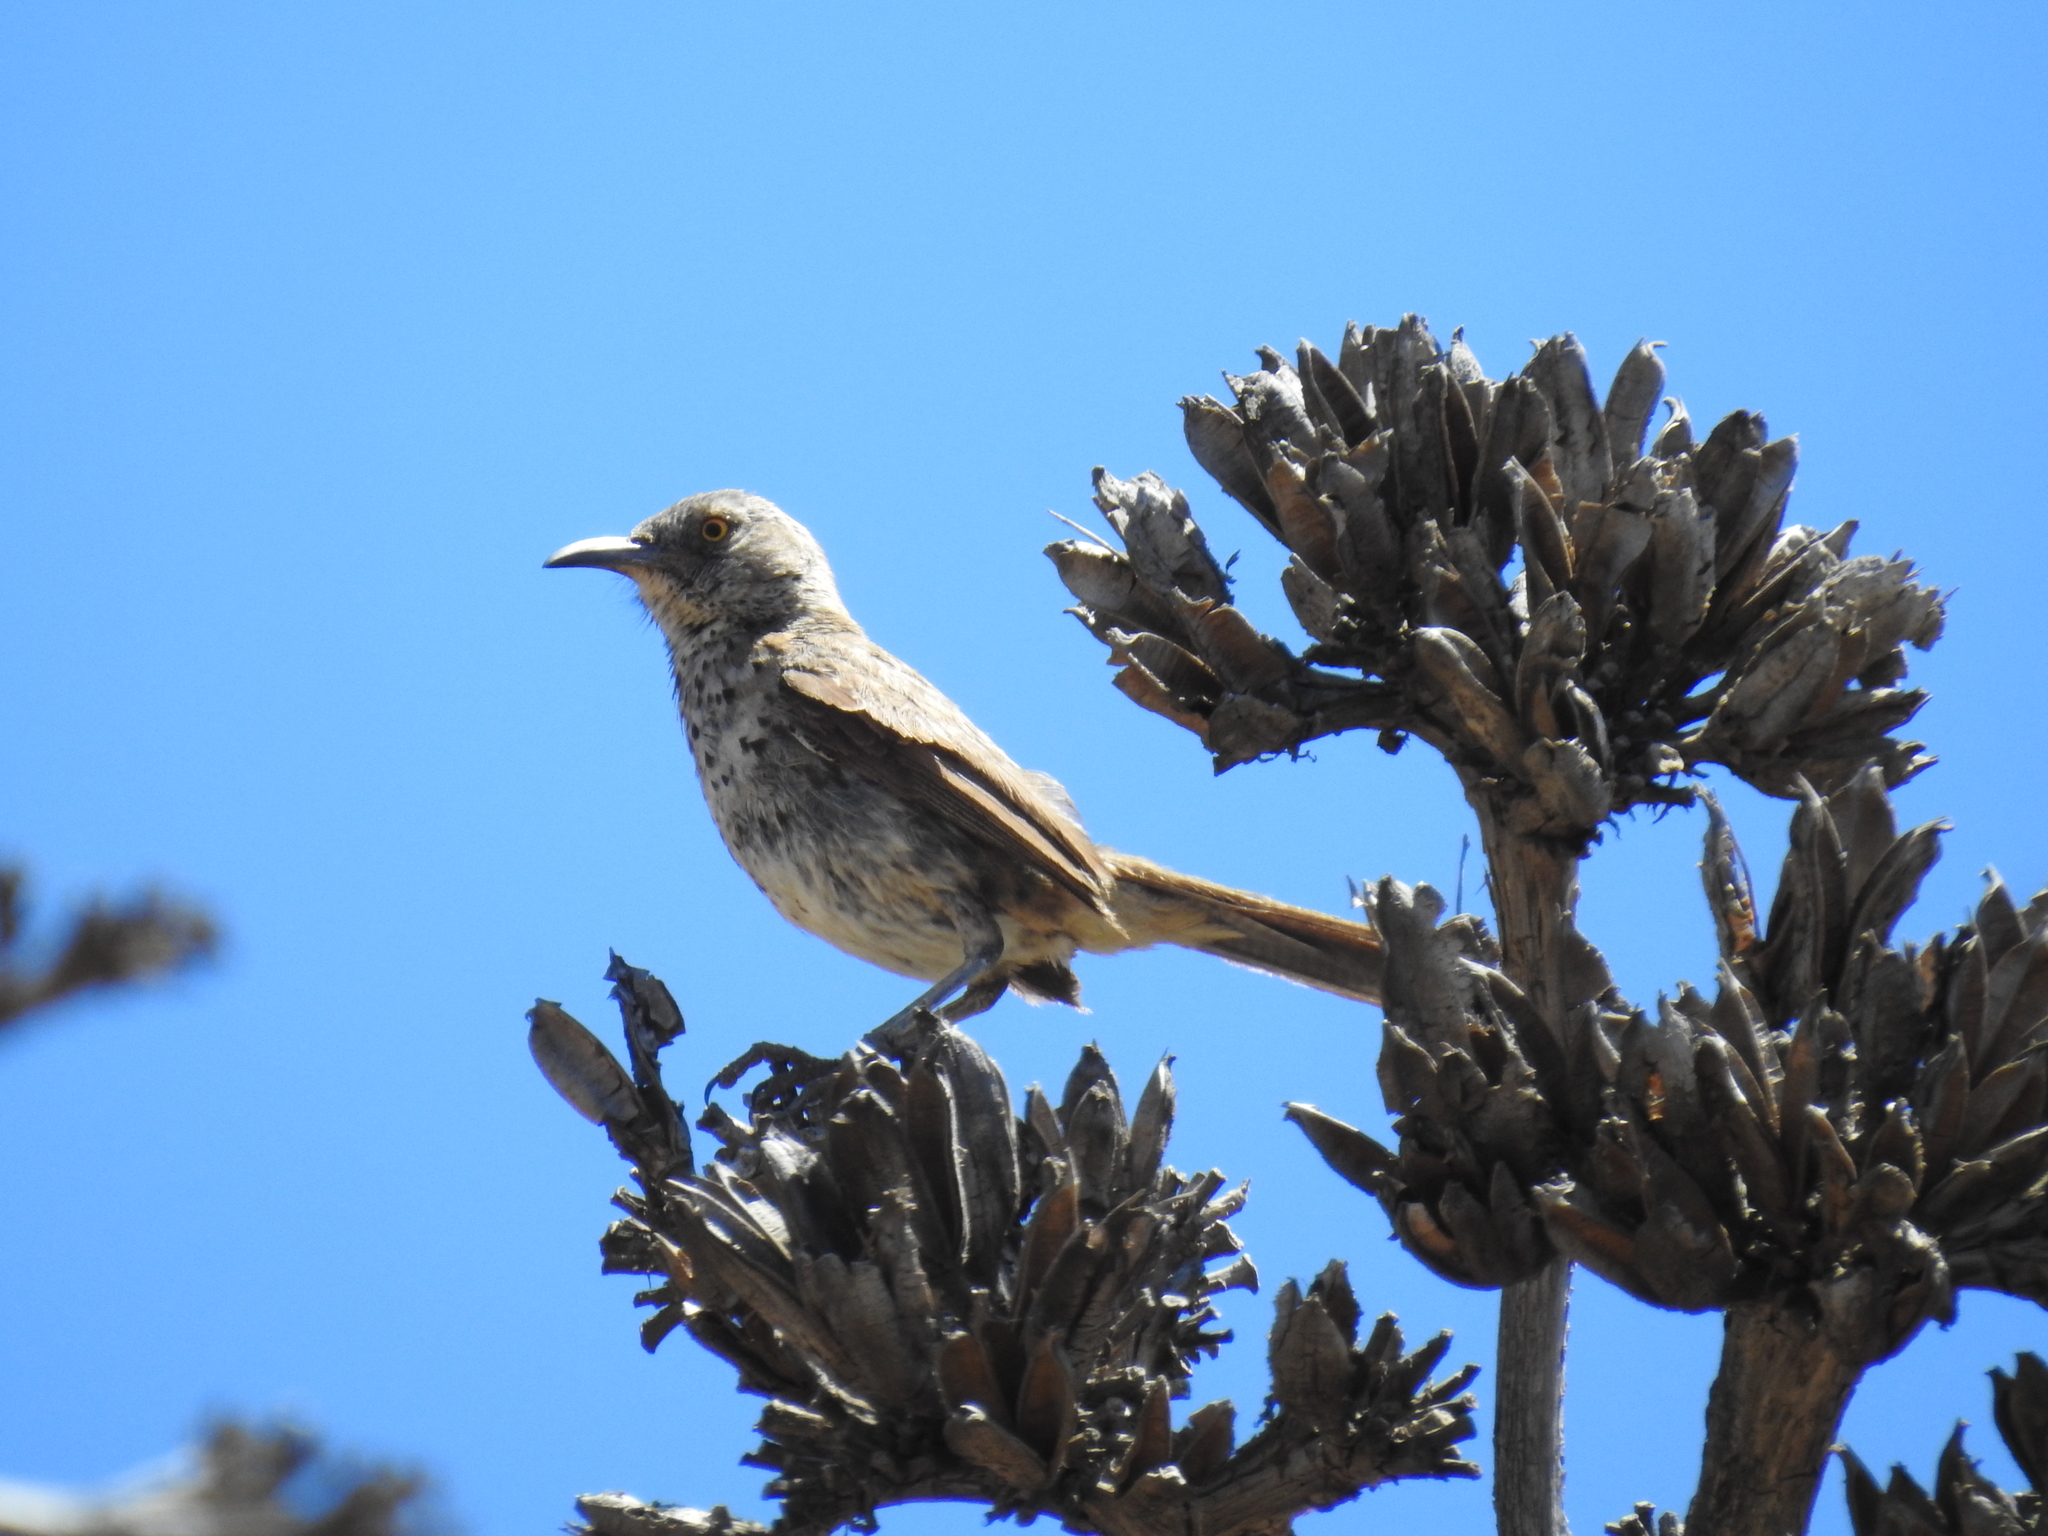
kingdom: Animalia
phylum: Chordata
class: Aves
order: Passeriformes
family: Mimidae
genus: Toxostoma
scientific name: Toxostoma cinereum
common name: Gray thrasher
